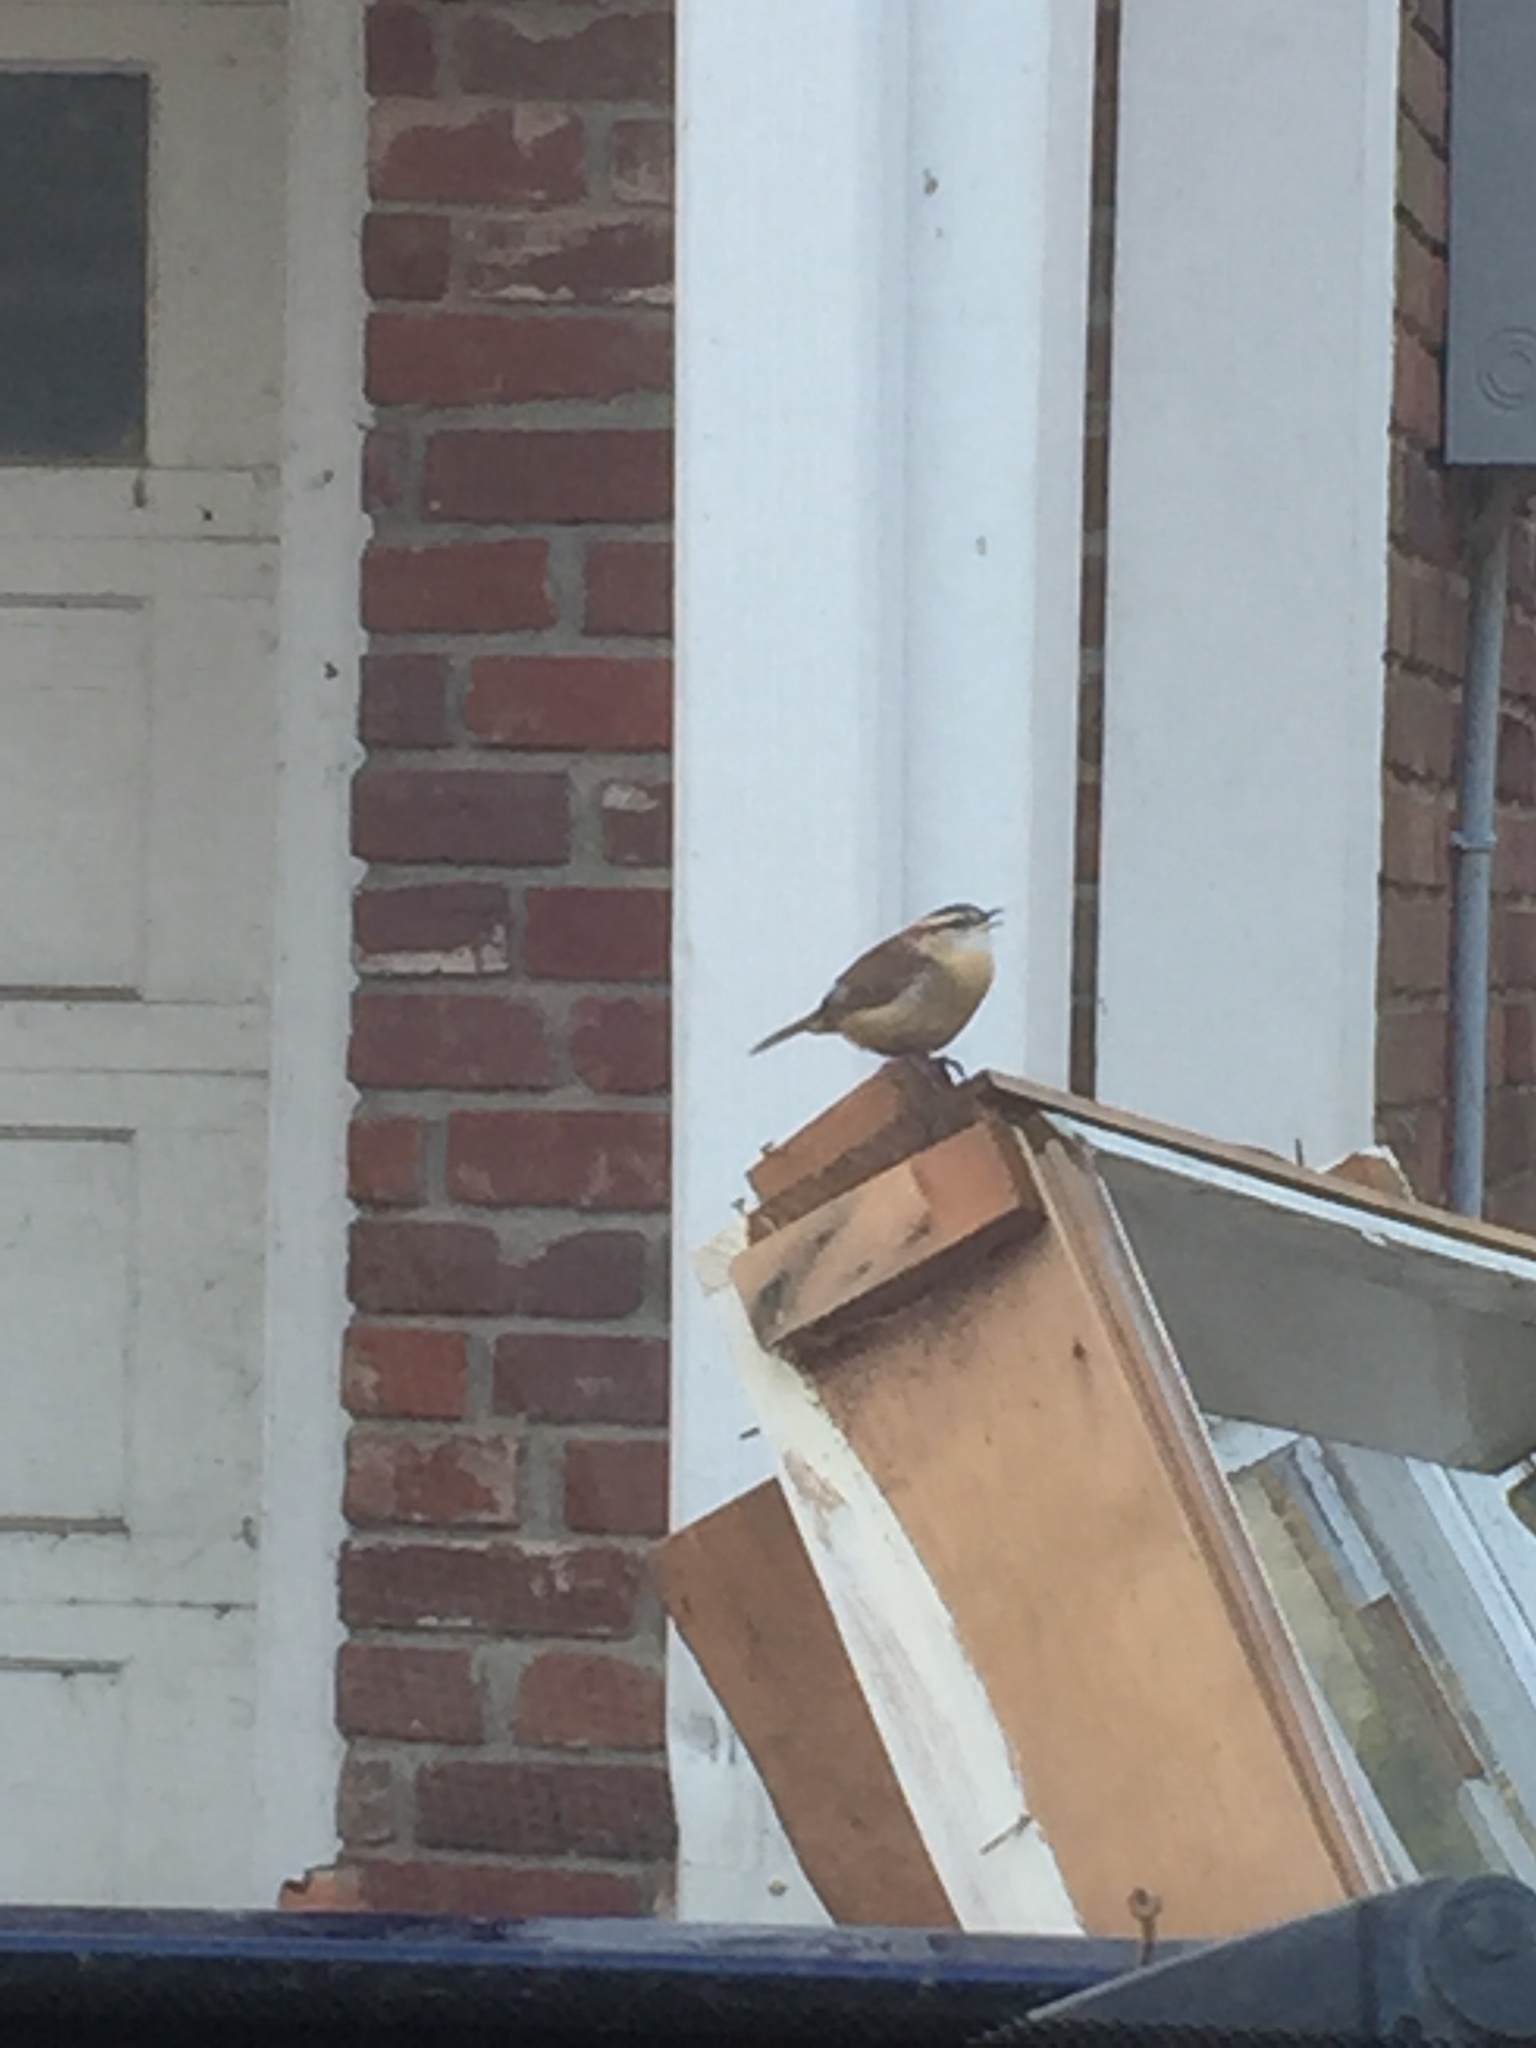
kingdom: Animalia
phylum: Chordata
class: Aves
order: Passeriformes
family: Troglodytidae
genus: Thryothorus
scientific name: Thryothorus ludovicianus
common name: Carolina wren
